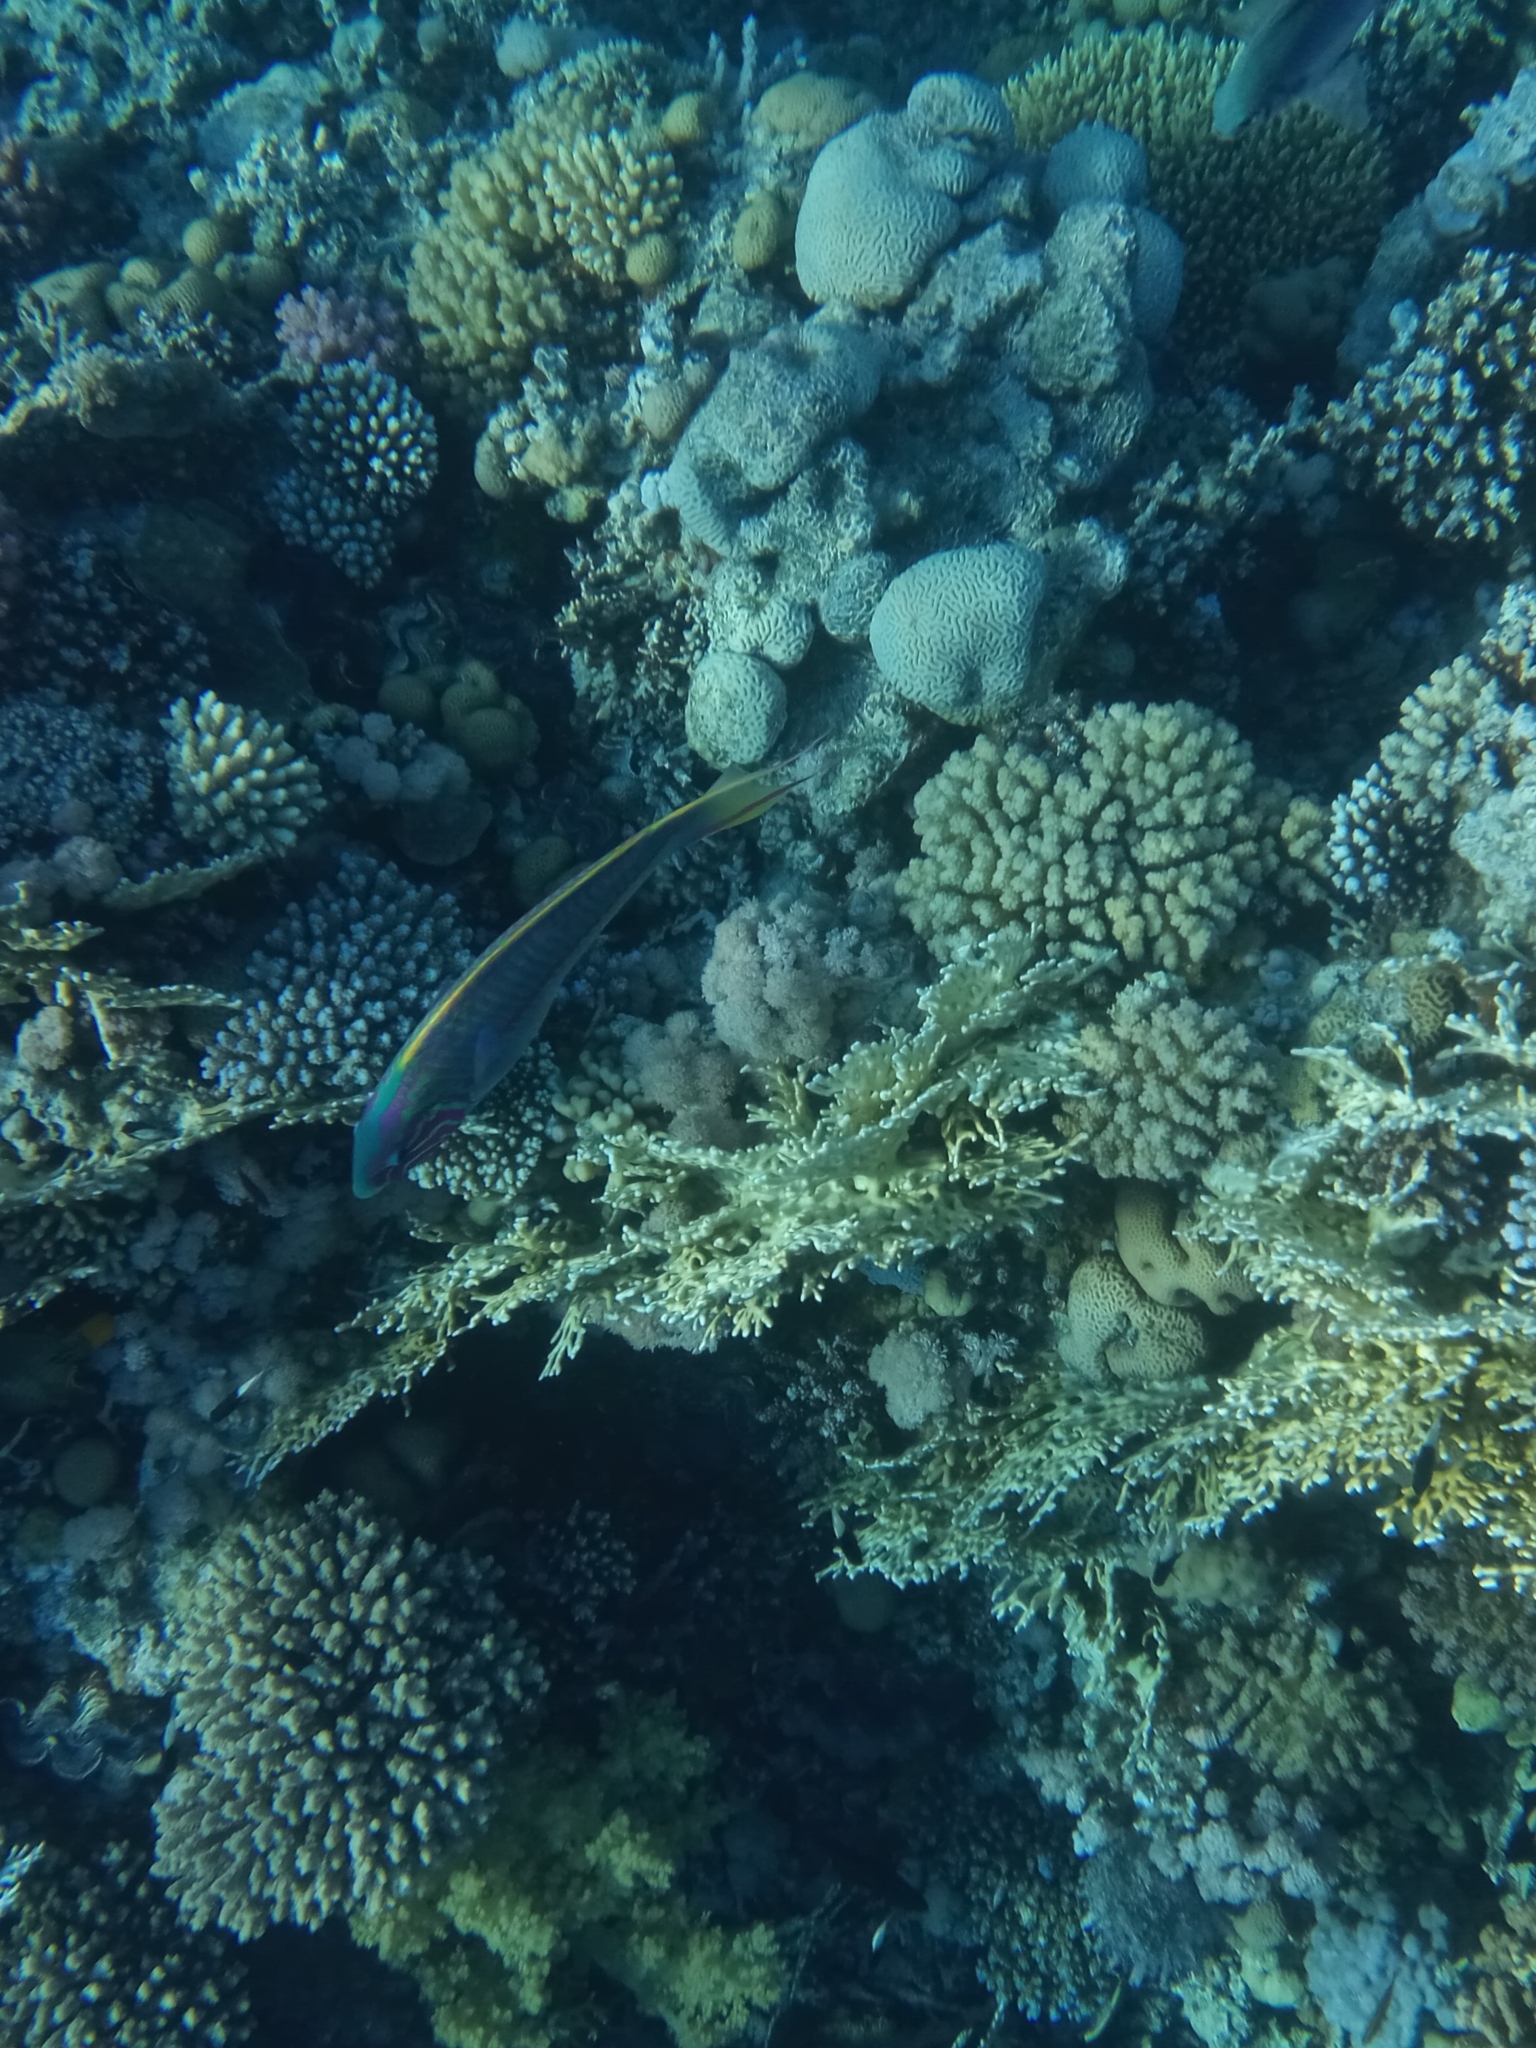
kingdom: Animalia
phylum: Chordata
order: Perciformes
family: Labridae
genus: Thalassoma
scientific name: Thalassoma rueppellii
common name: Klunzinger's wrasse
